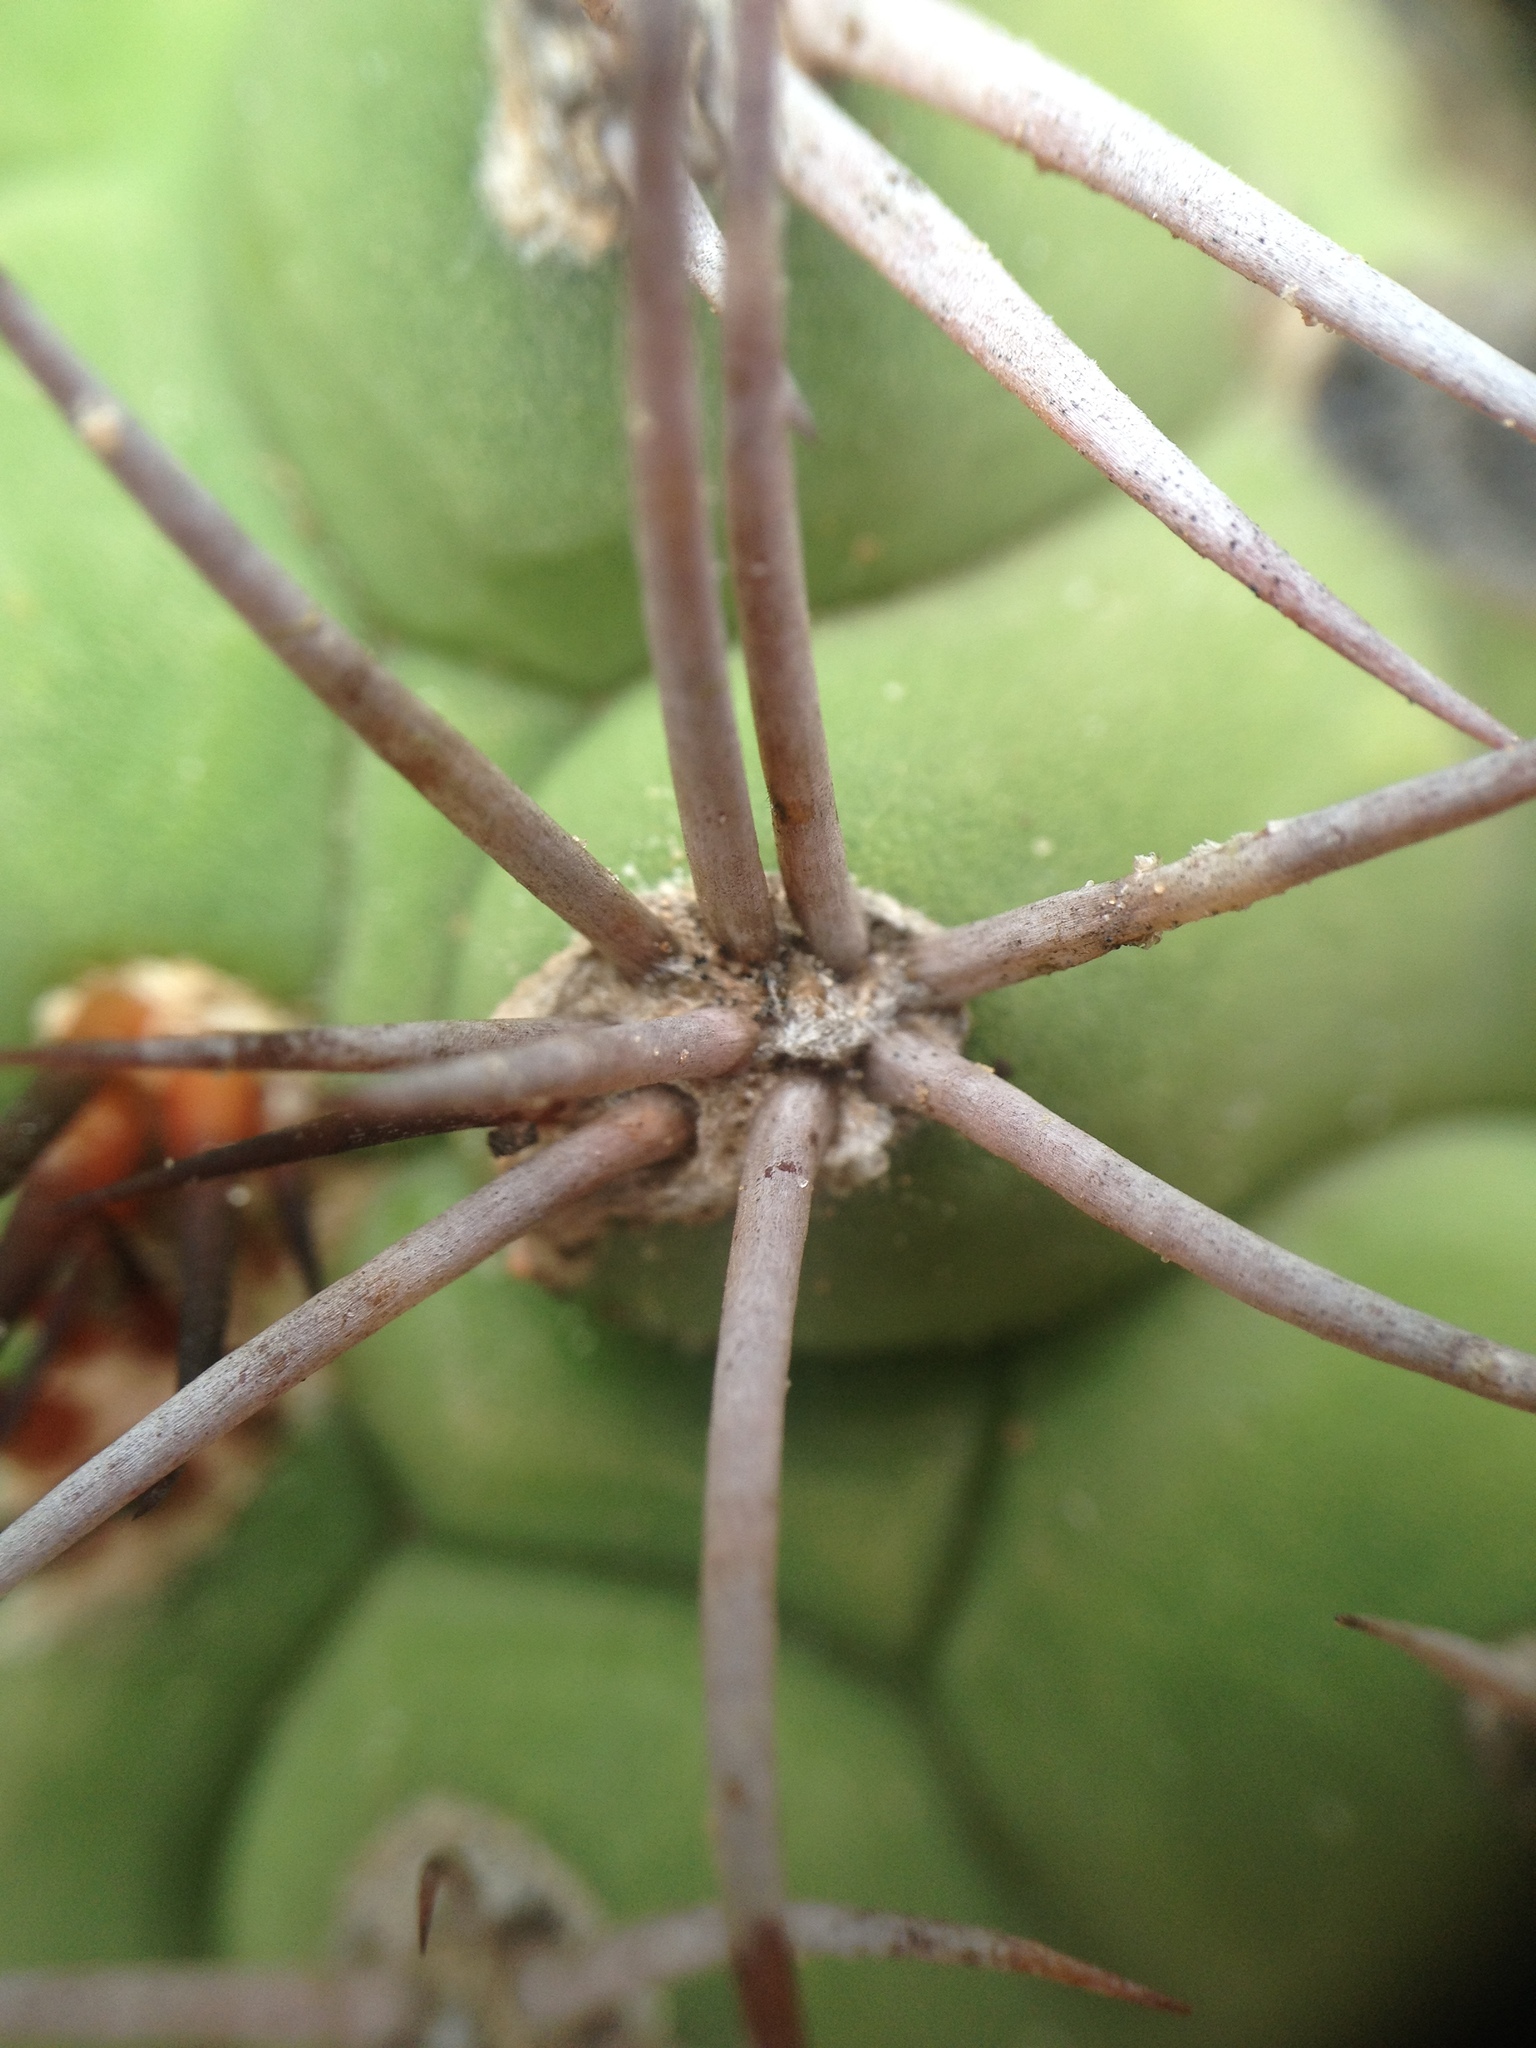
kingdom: Plantae
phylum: Tracheophyta
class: Magnoliopsida
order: Caryophyllales
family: Cactaceae
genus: Gymnocalycium
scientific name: Gymnocalycium pflanzii
